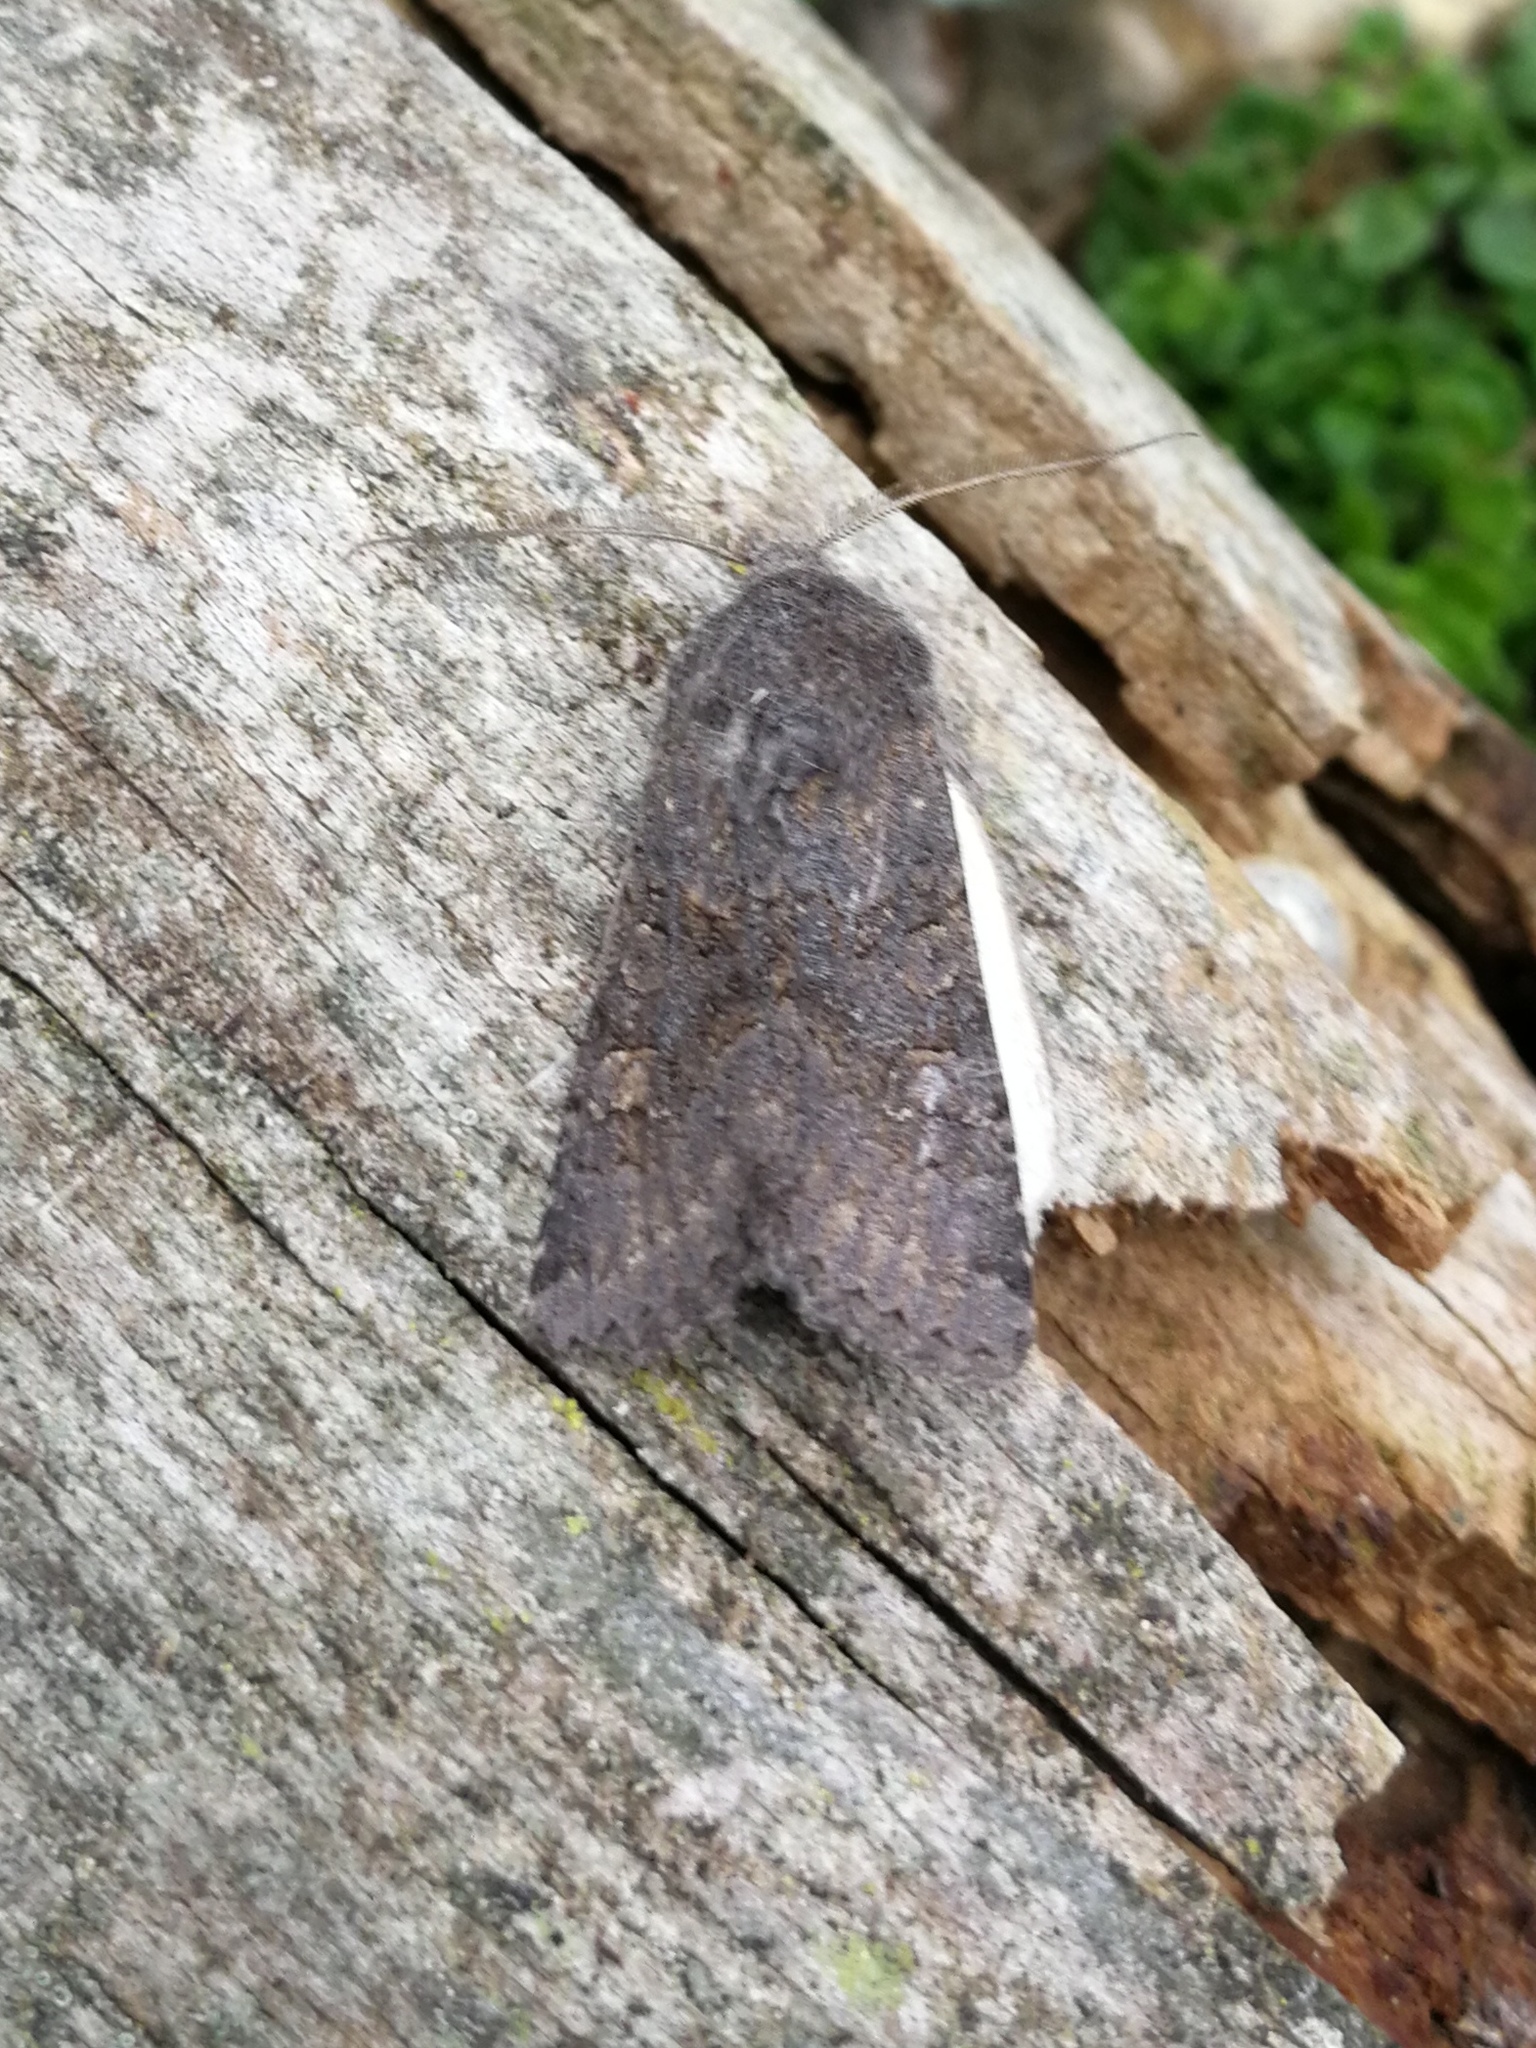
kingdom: Animalia
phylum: Arthropoda
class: Insecta
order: Lepidoptera
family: Noctuidae
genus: Aporophyla
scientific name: Aporophyla lueneburgensis
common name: Northern deep-brown dart
